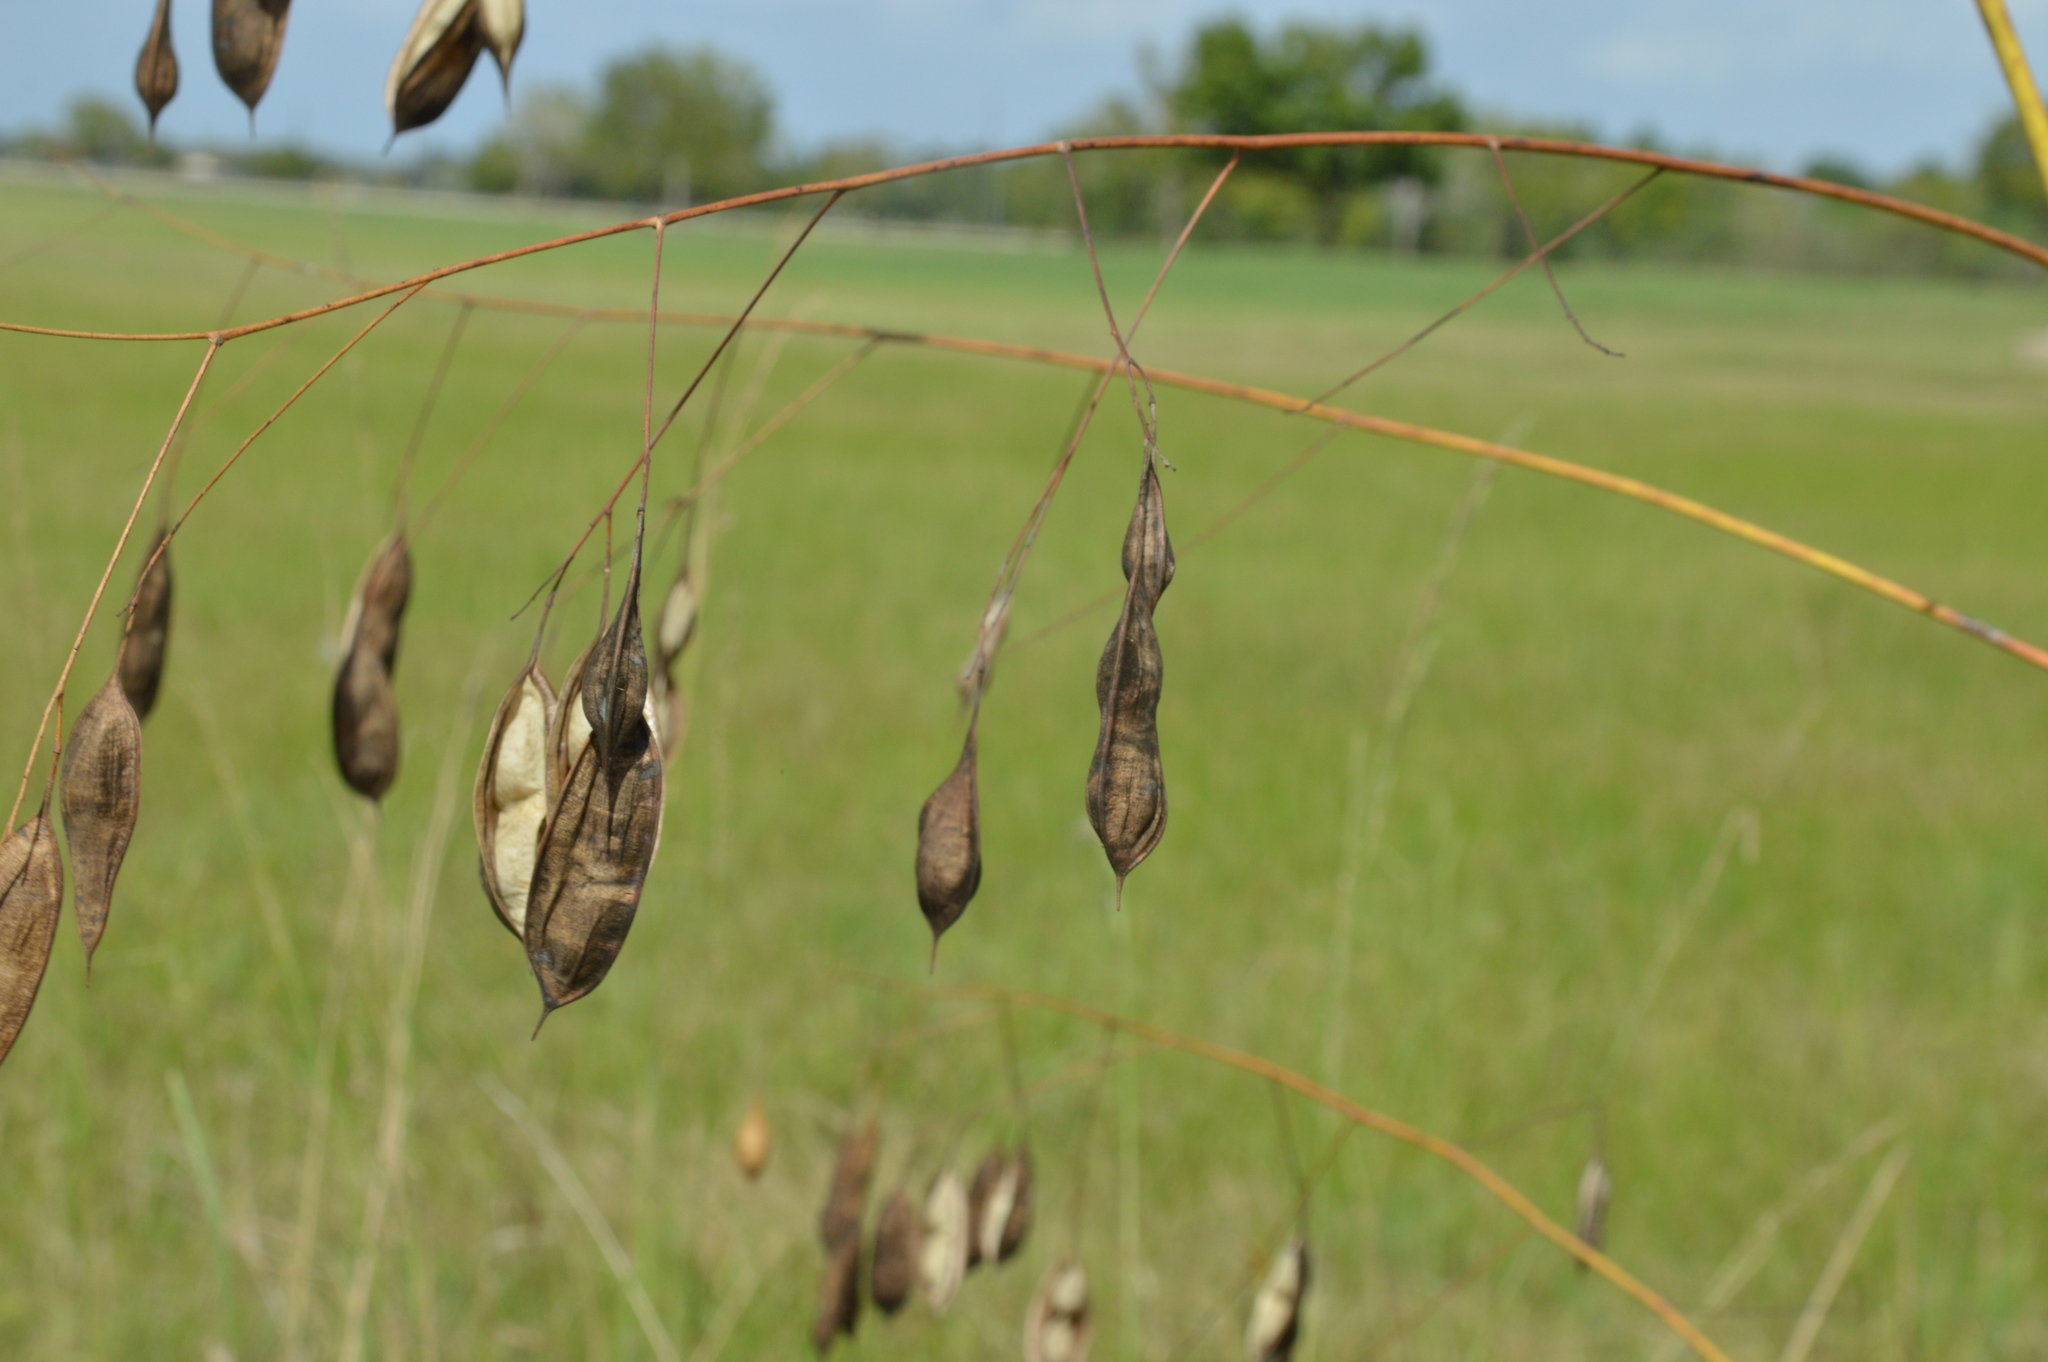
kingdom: Plantae
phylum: Tracheophyta
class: Magnoliopsida
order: Fabales
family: Fabaceae
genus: Sesbania
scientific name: Sesbania vesicaria
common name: Bagpod
